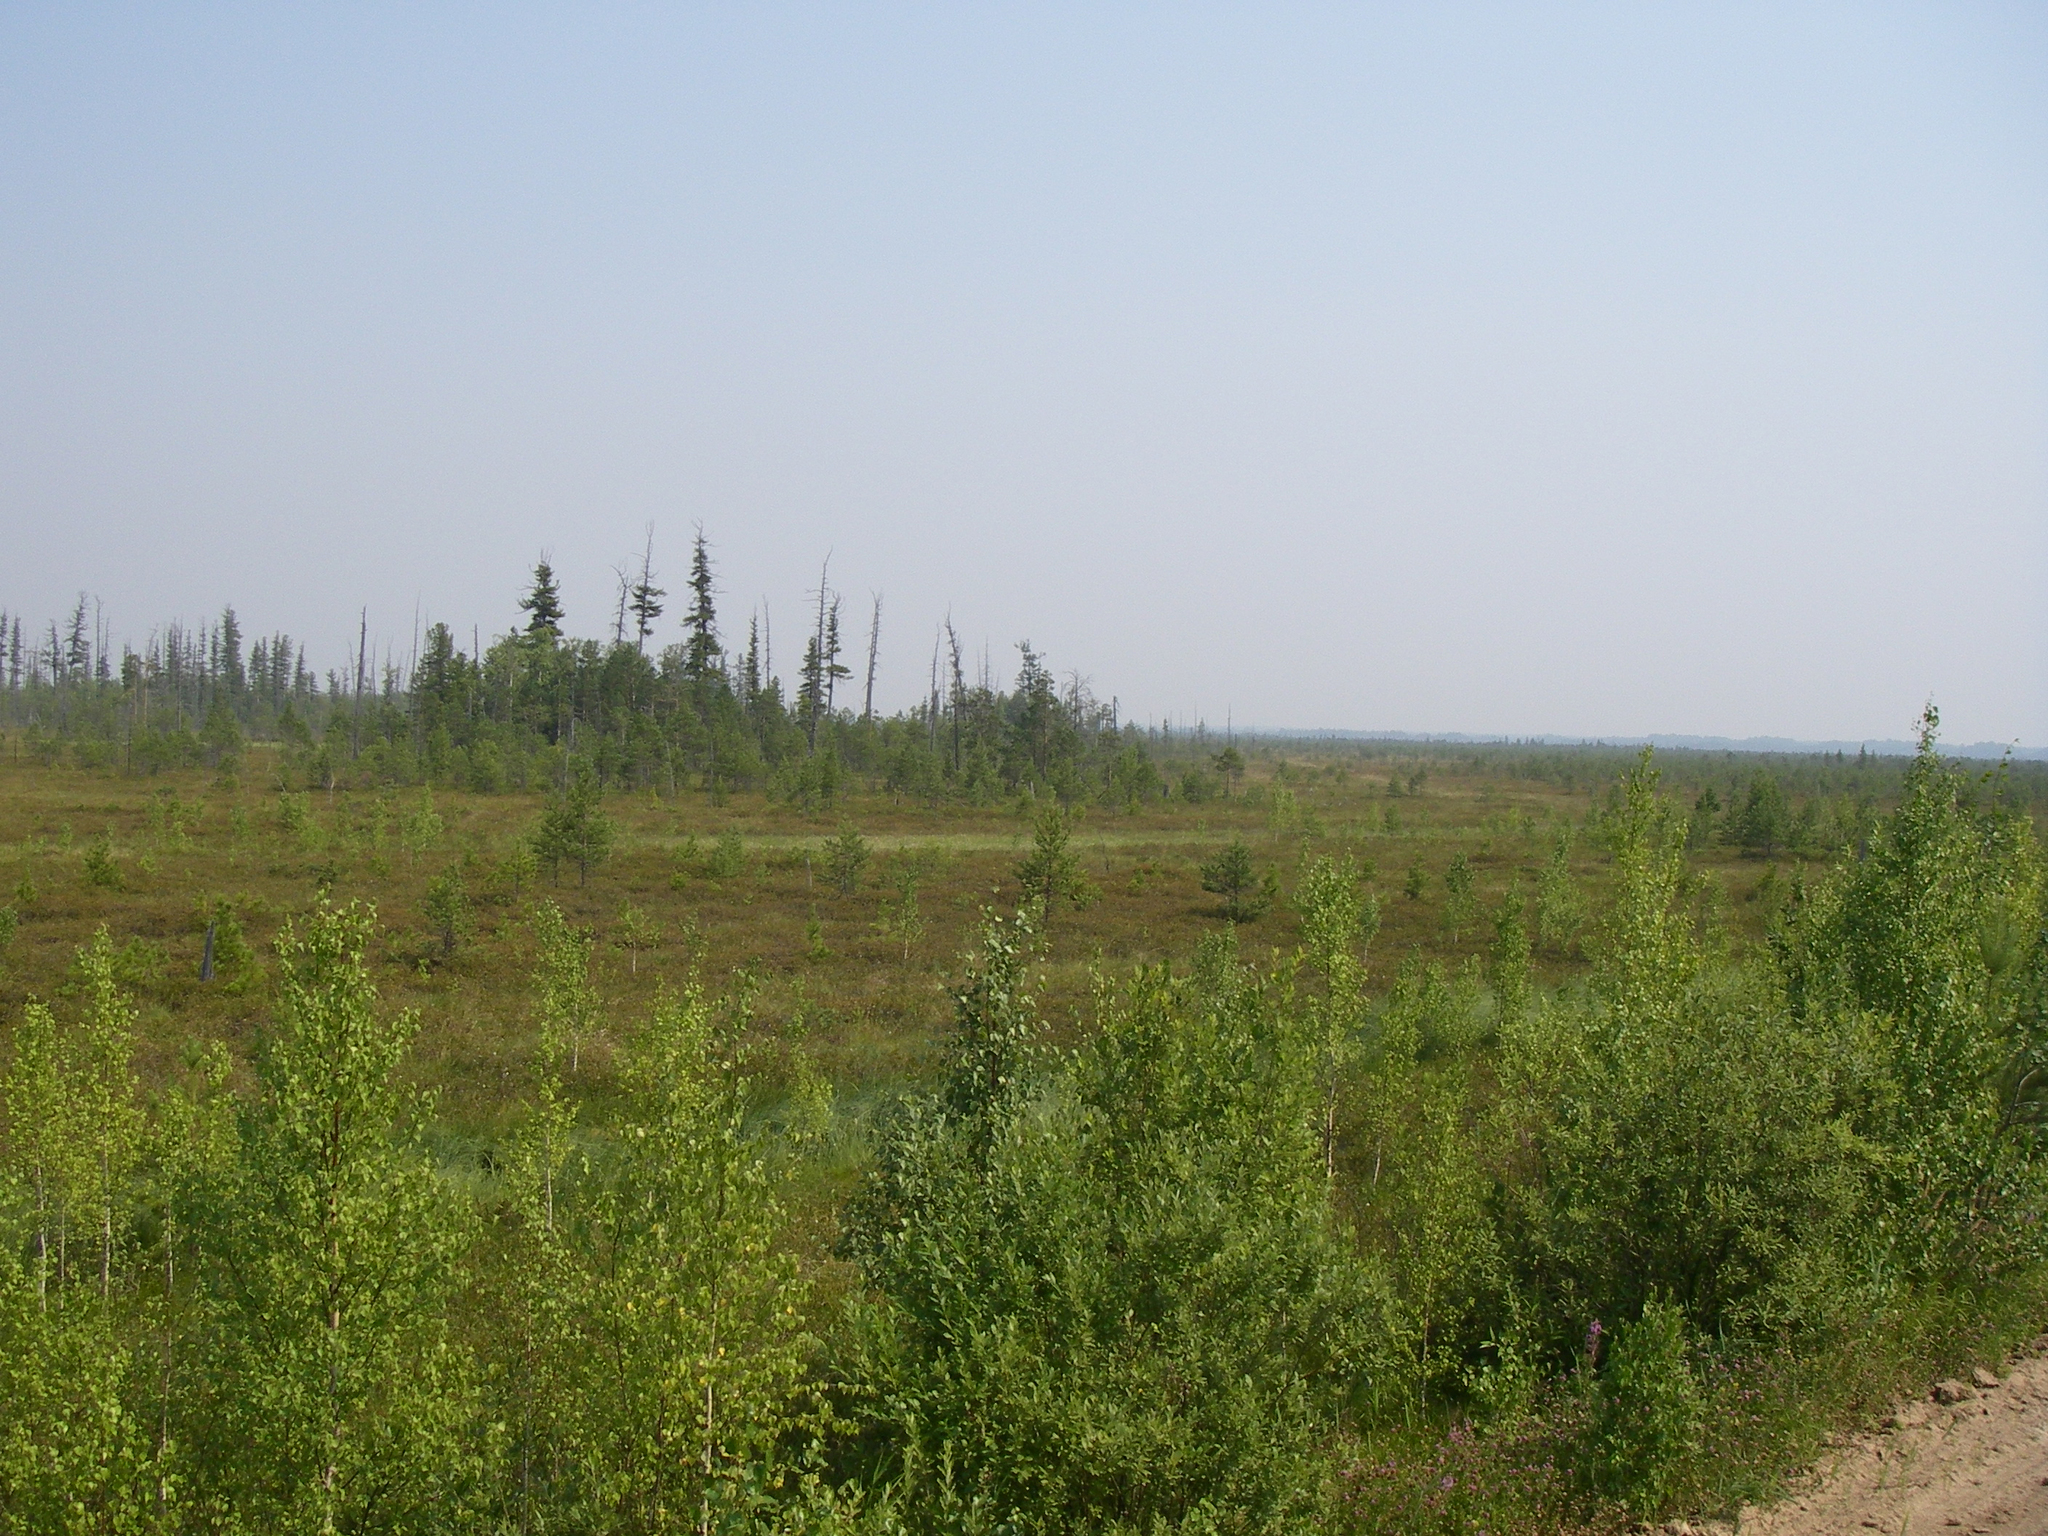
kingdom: Plantae
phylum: Tracheophyta
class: Magnoliopsida
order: Fagales
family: Betulaceae
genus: Betula
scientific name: Betula pubescens
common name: Downy birch
